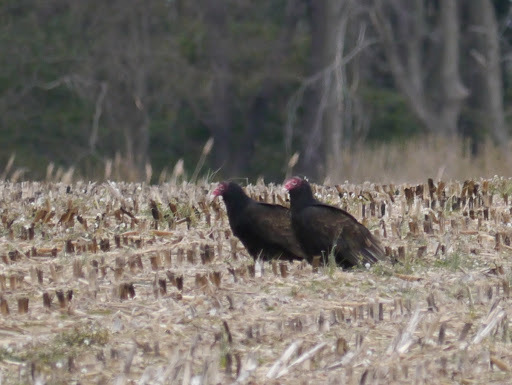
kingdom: Animalia
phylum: Chordata
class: Aves
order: Accipitriformes
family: Cathartidae
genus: Cathartes
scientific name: Cathartes aura
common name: Turkey vulture
